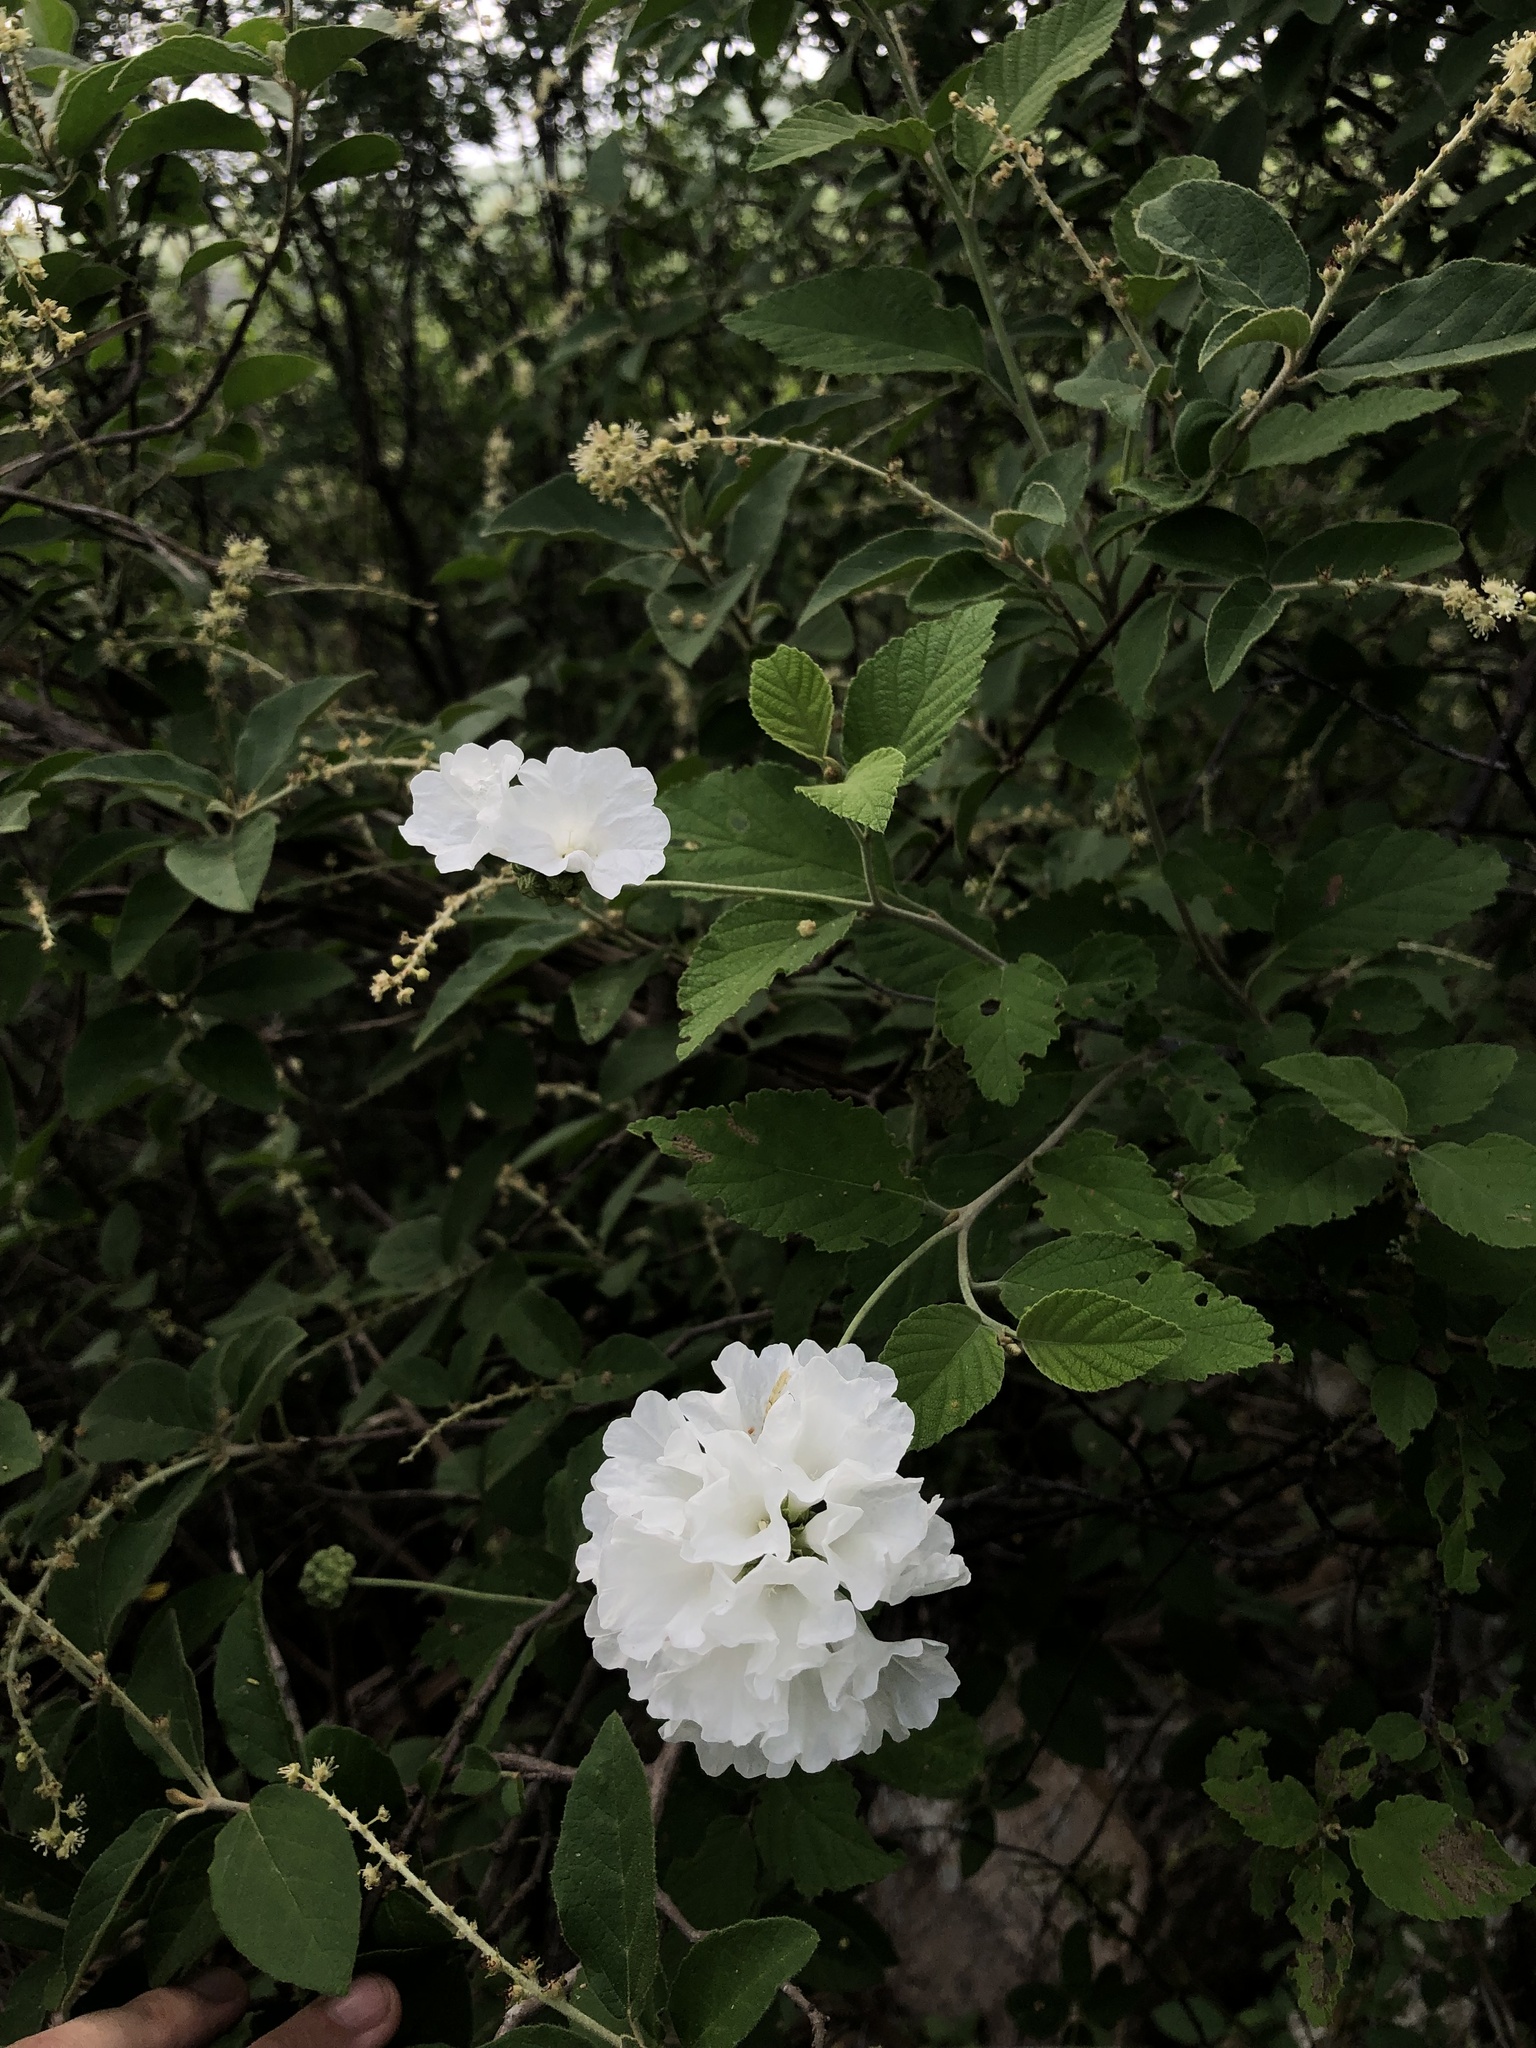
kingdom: Plantae
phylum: Tracheophyta
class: Magnoliopsida
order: Boraginales
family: Cordiaceae
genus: Varronia
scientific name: Varronia leucocephala
